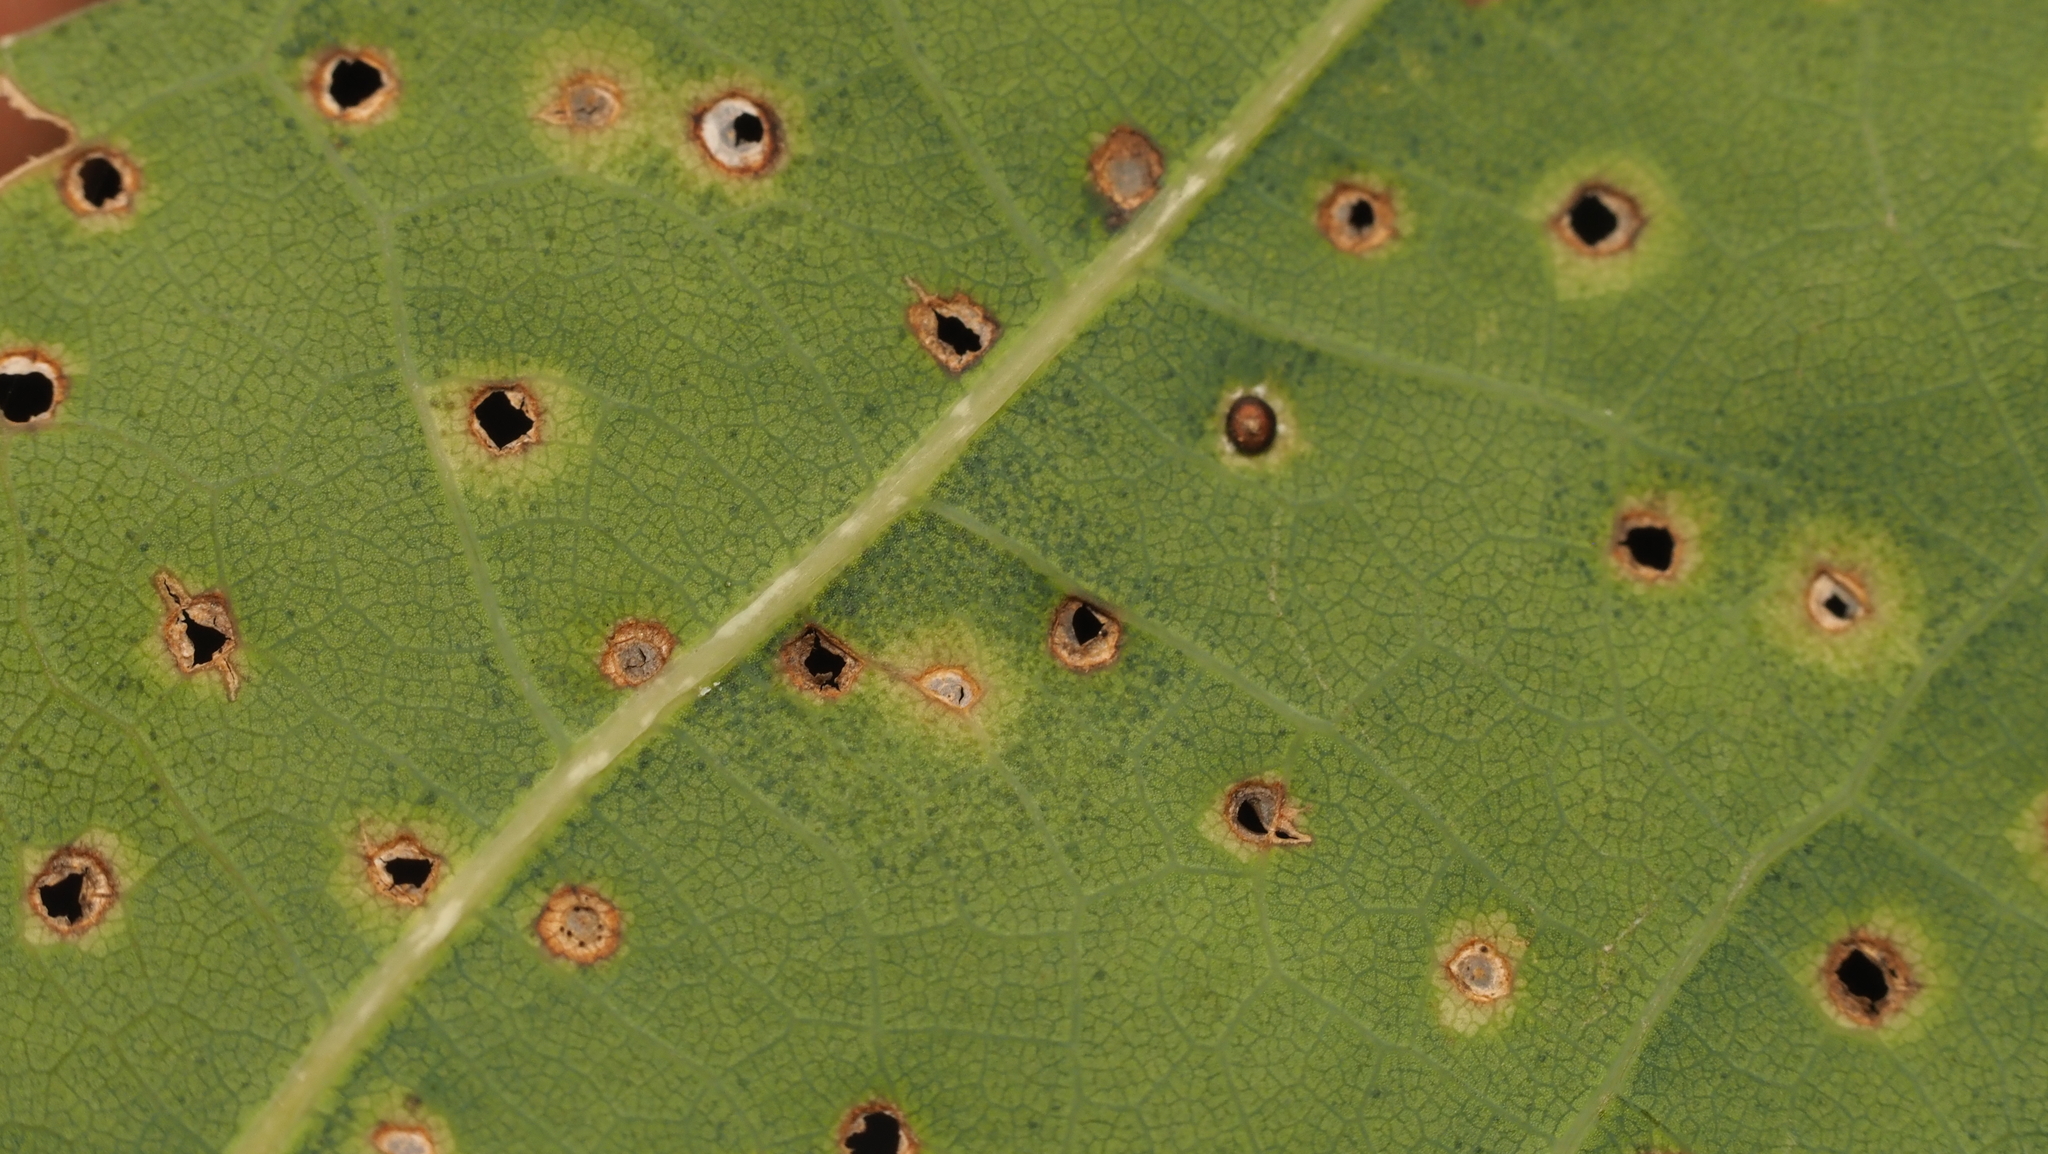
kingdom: Animalia
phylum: Arthropoda
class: Insecta
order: Hymenoptera
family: Cynipidae
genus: Neuroterus
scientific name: Neuroterus
